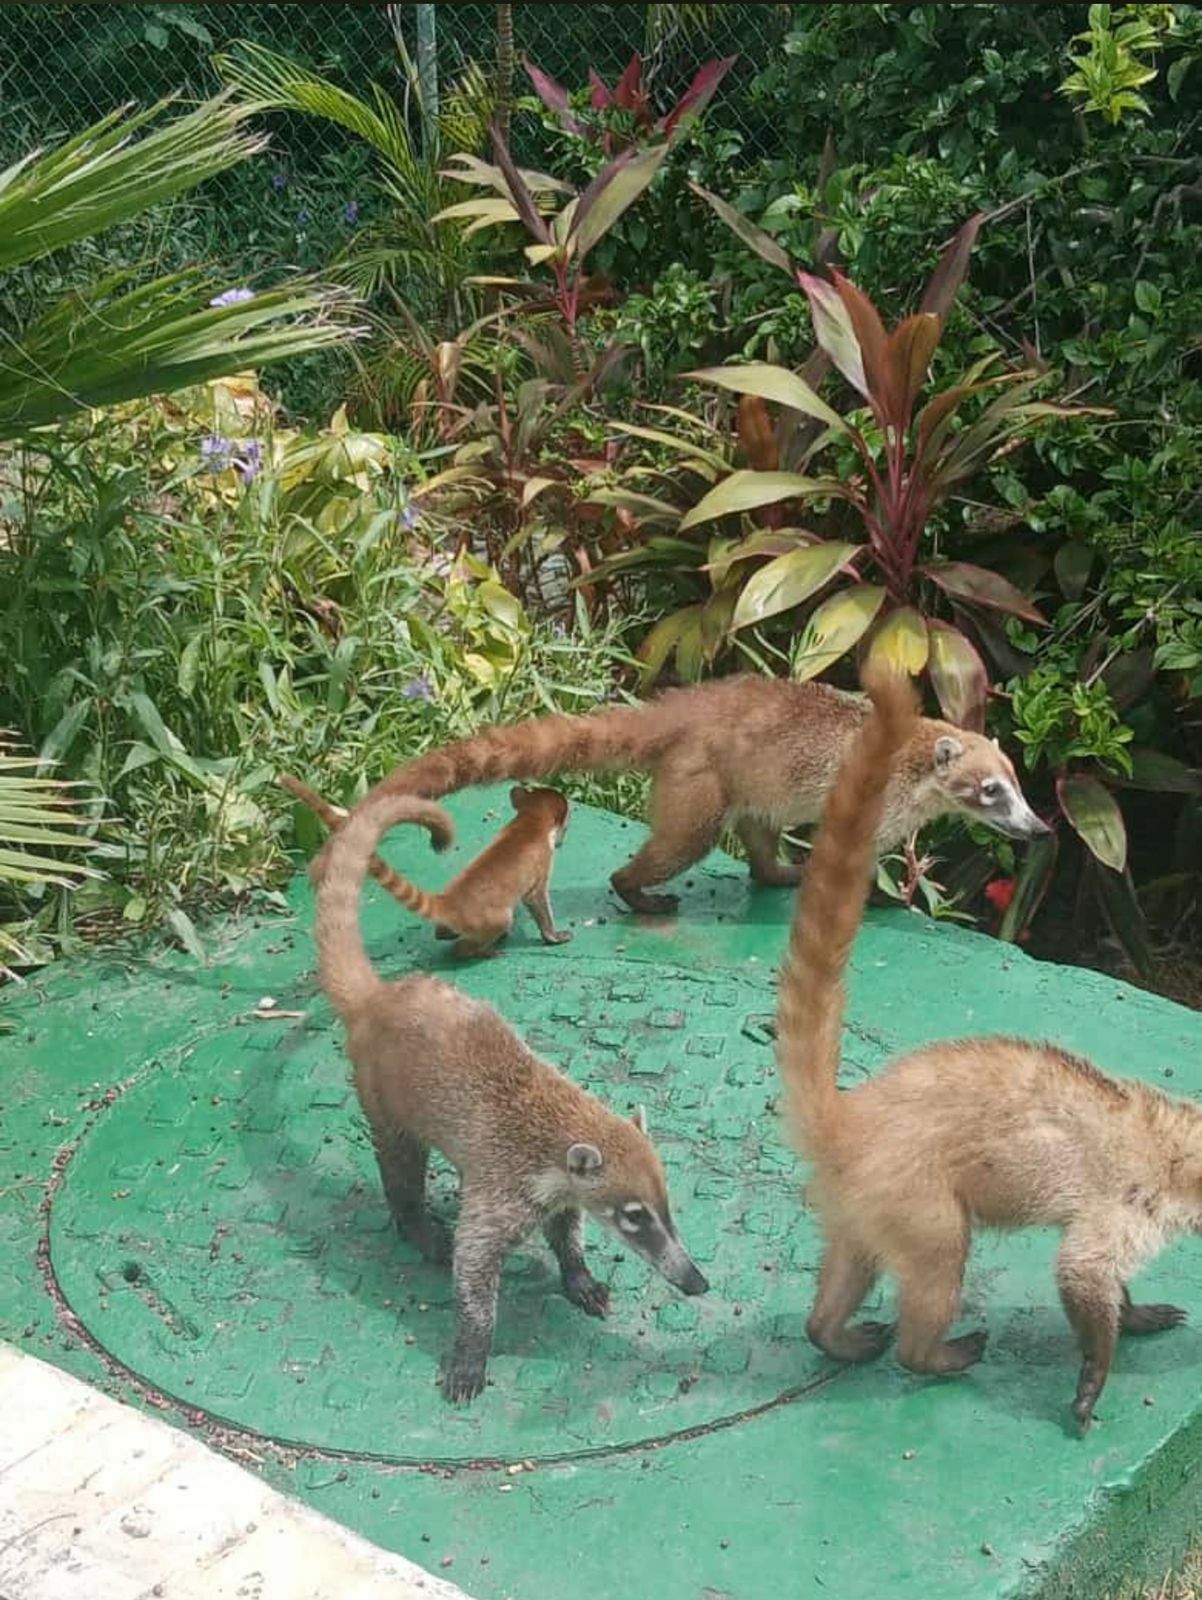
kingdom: Animalia
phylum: Chordata
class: Mammalia
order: Carnivora
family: Procyonidae
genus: Nasua
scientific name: Nasua narica
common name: White-nosed coati
